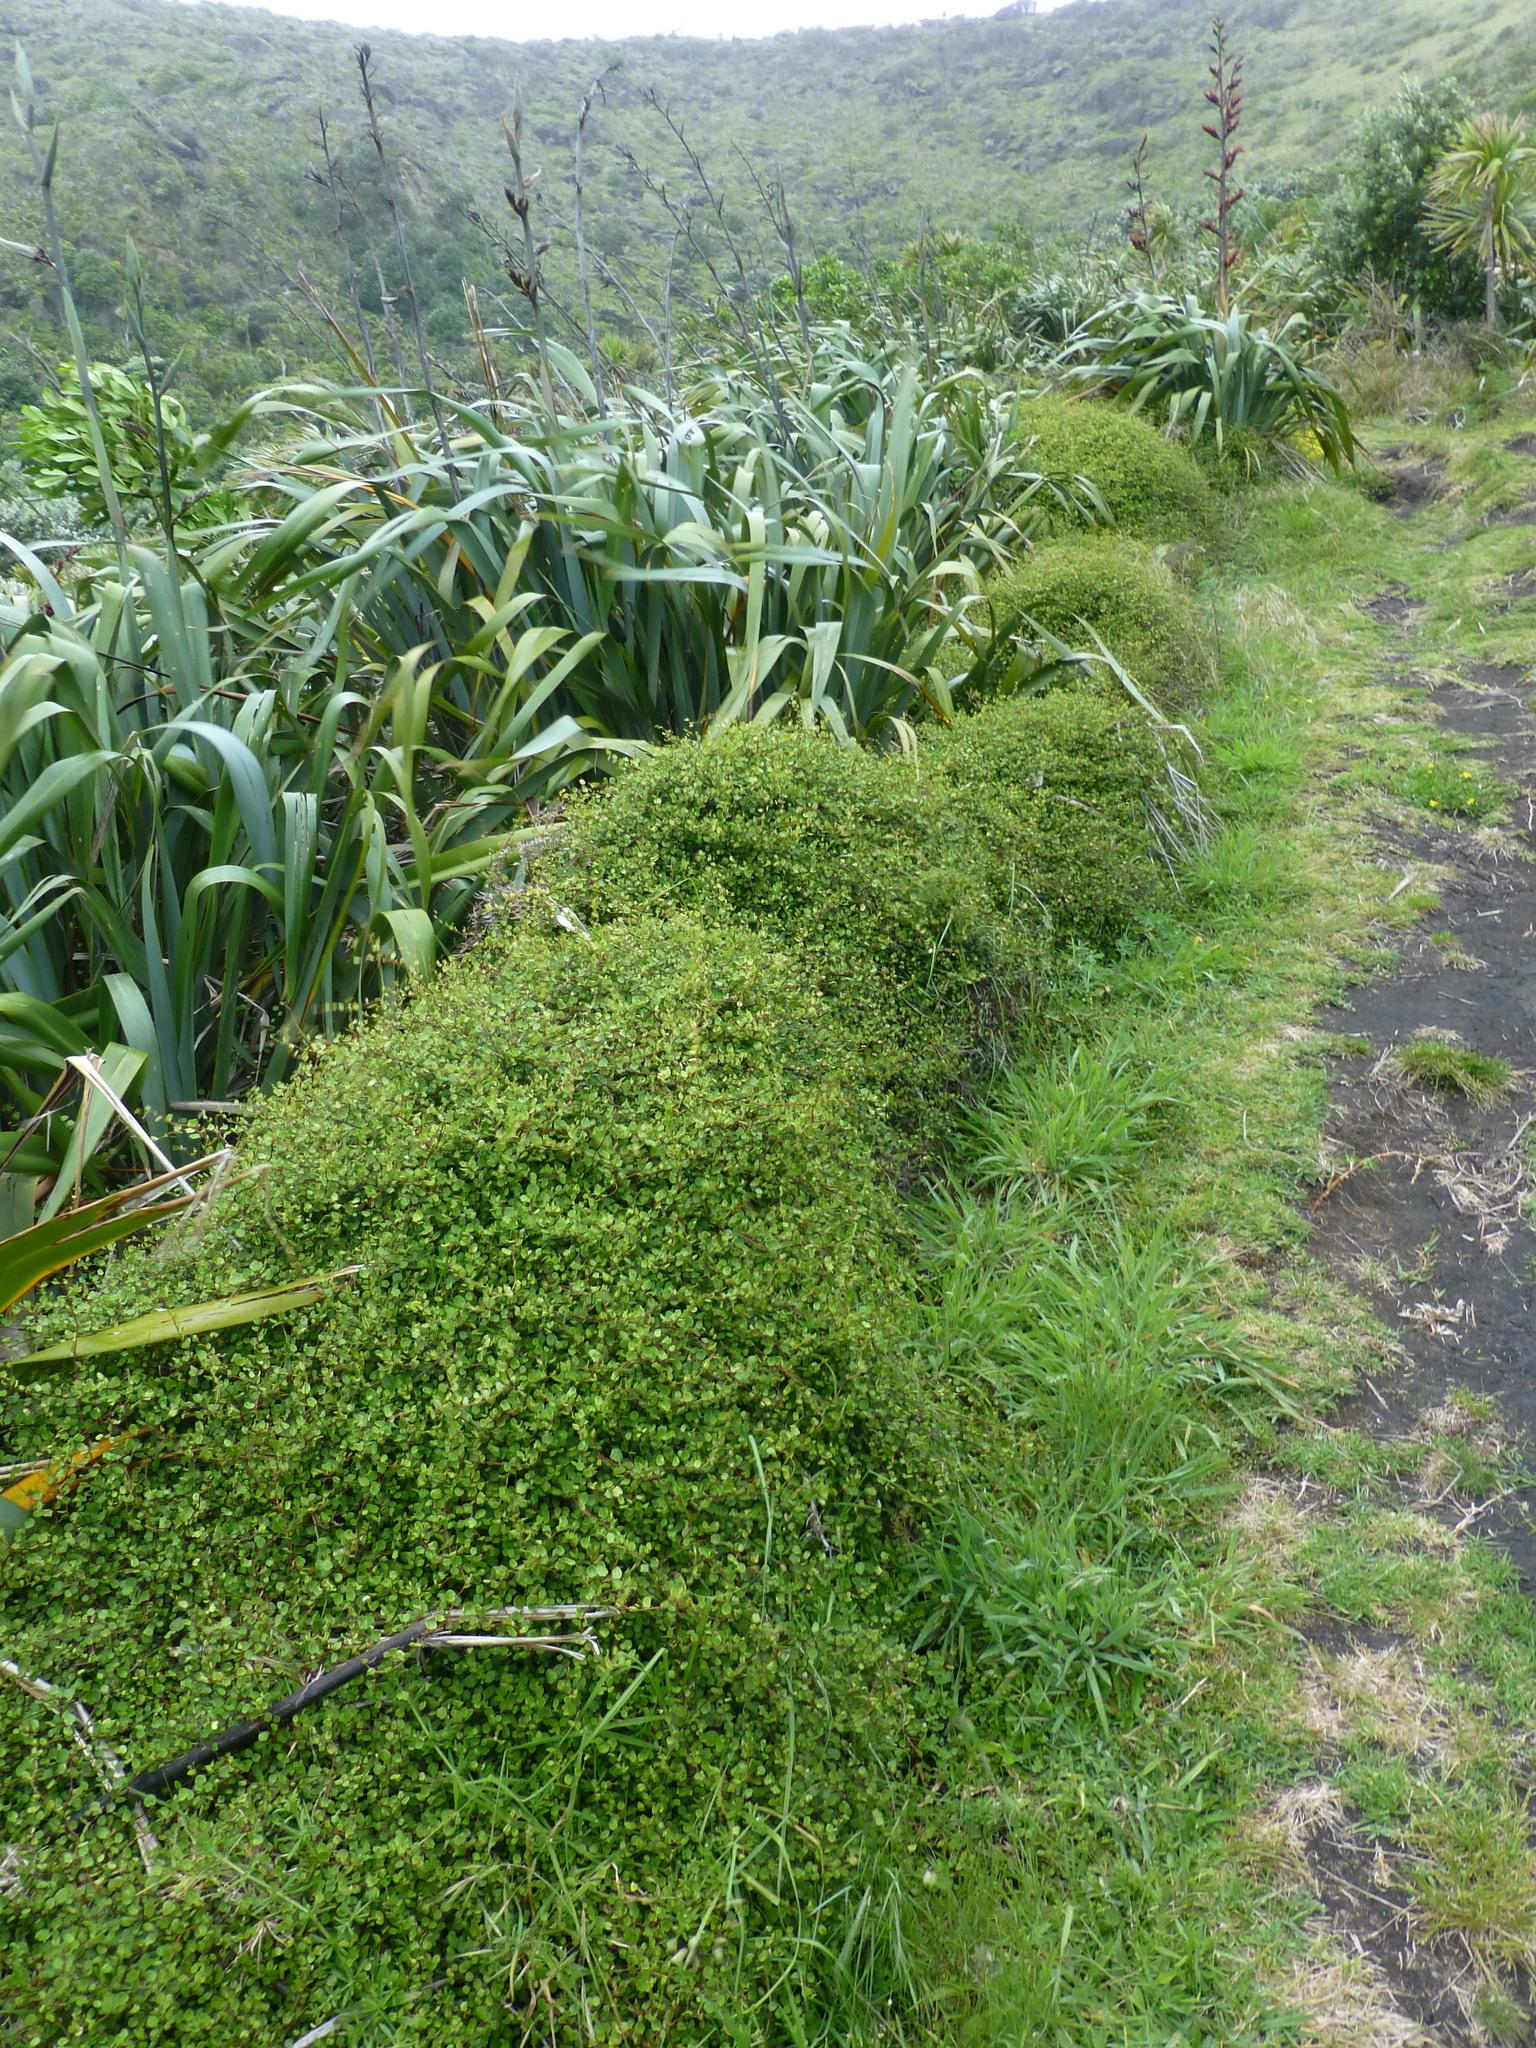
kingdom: Plantae
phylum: Tracheophyta
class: Magnoliopsida
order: Caryophyllales
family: Polygonaceae
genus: Muehlenbeckia
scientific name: Muehlenbeckia complexa
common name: Wireplant
